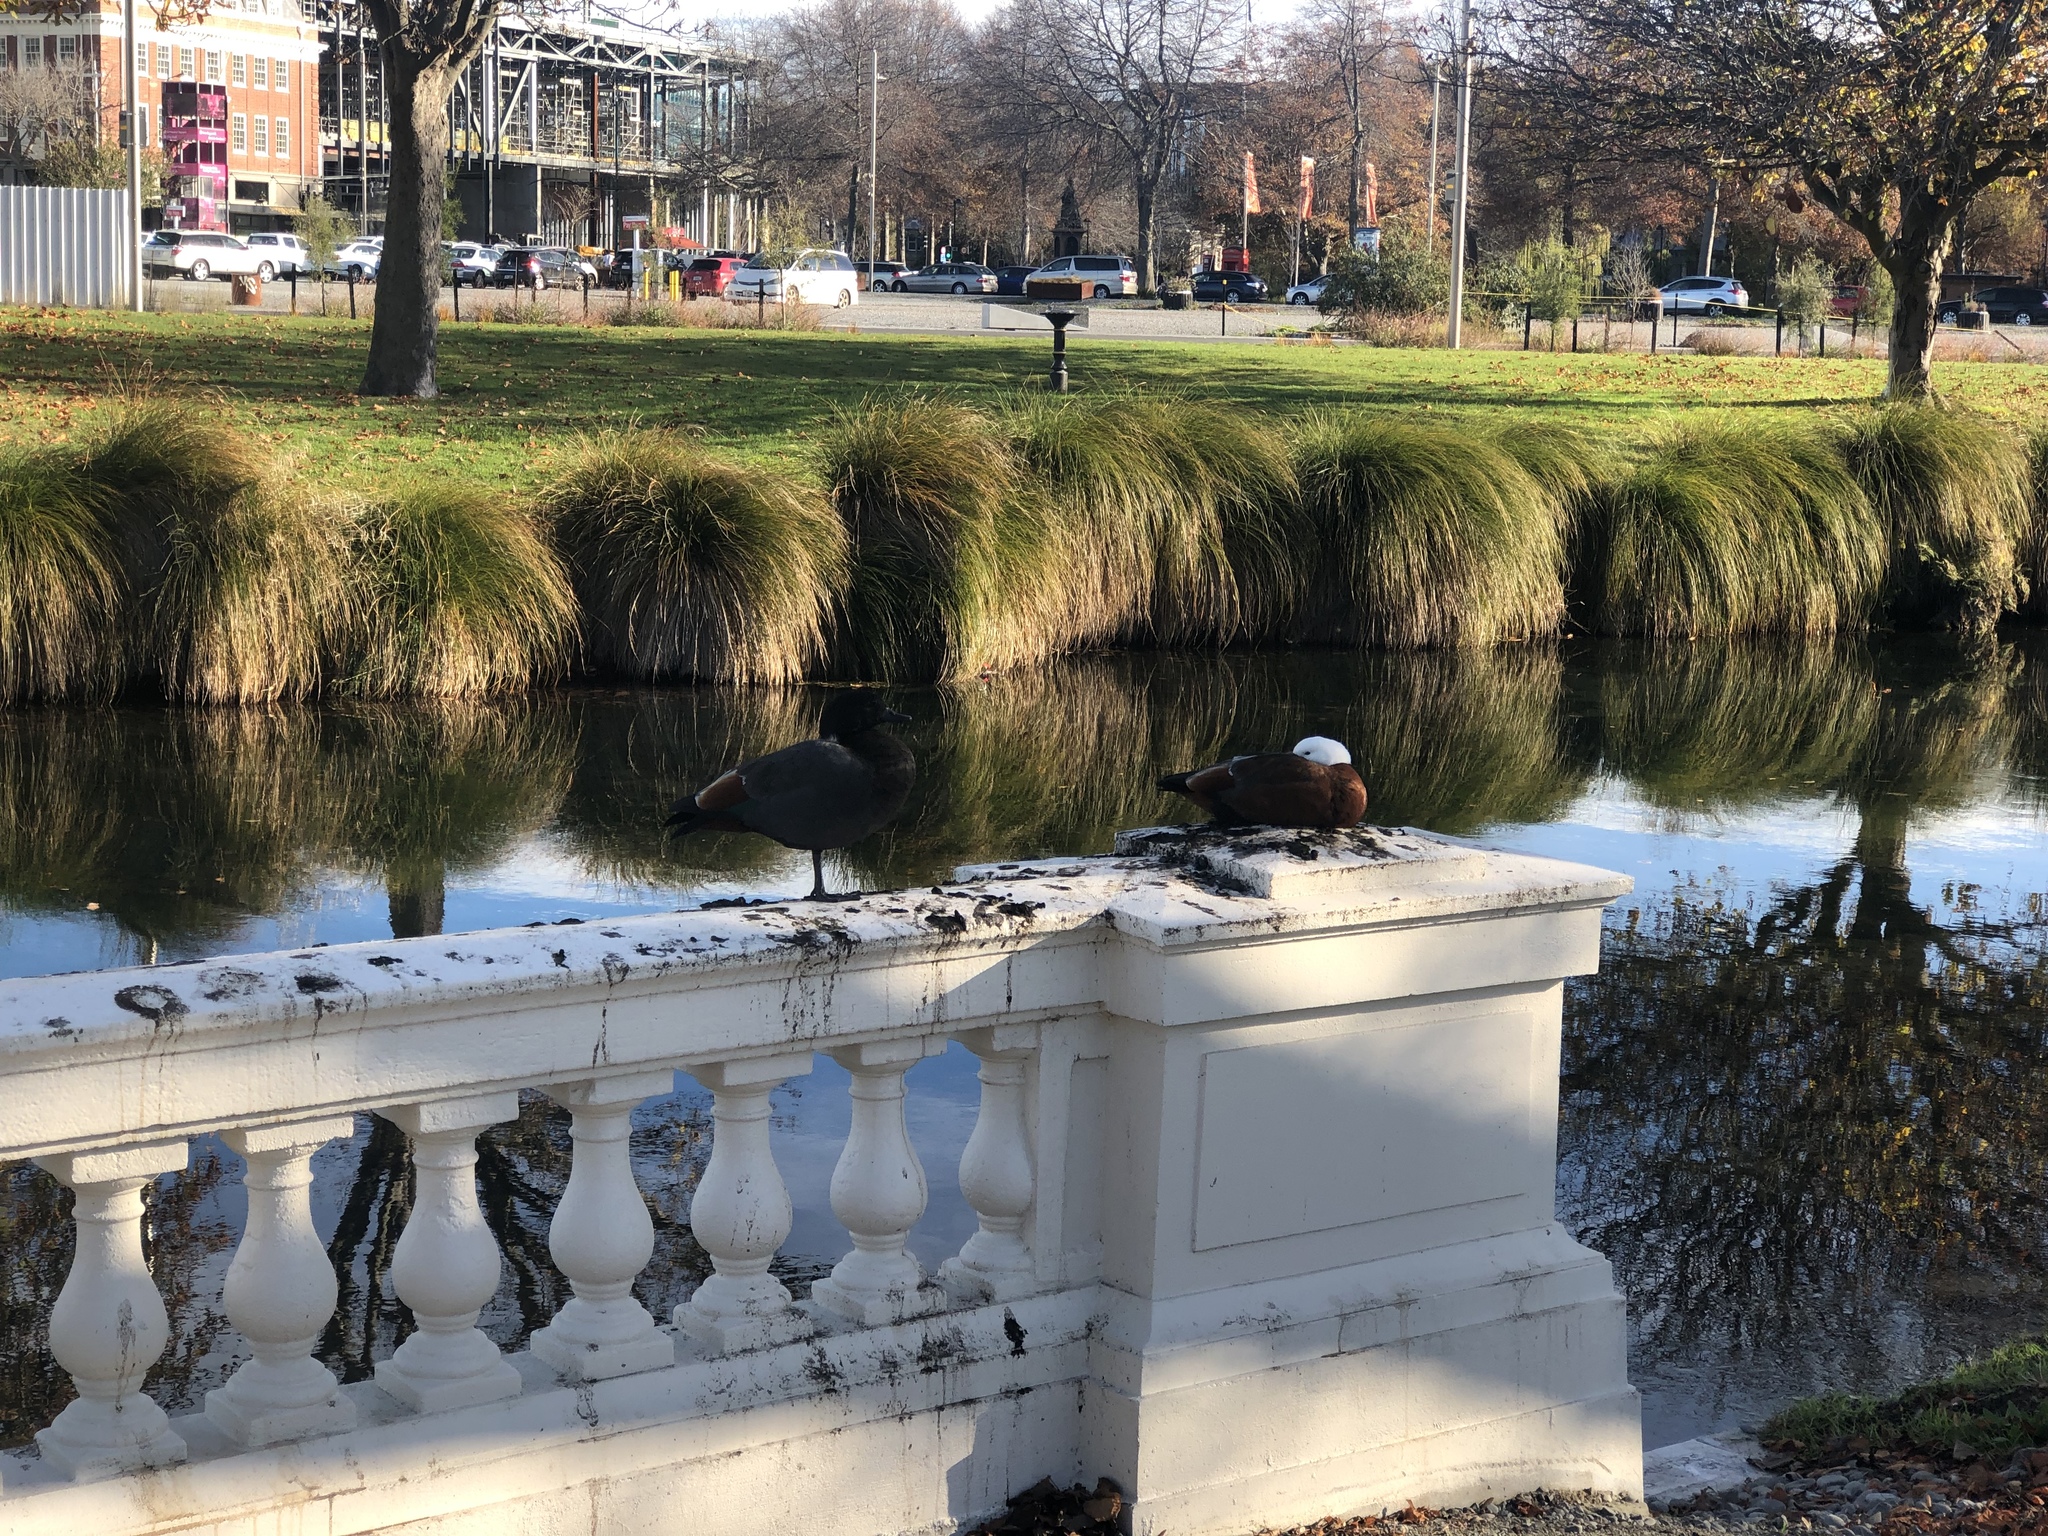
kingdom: Animalia
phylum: Chordata
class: Aves
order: Anseriformes
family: Anatidae
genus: Tadorna
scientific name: Tadorna variegata
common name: Paradise shelduck
